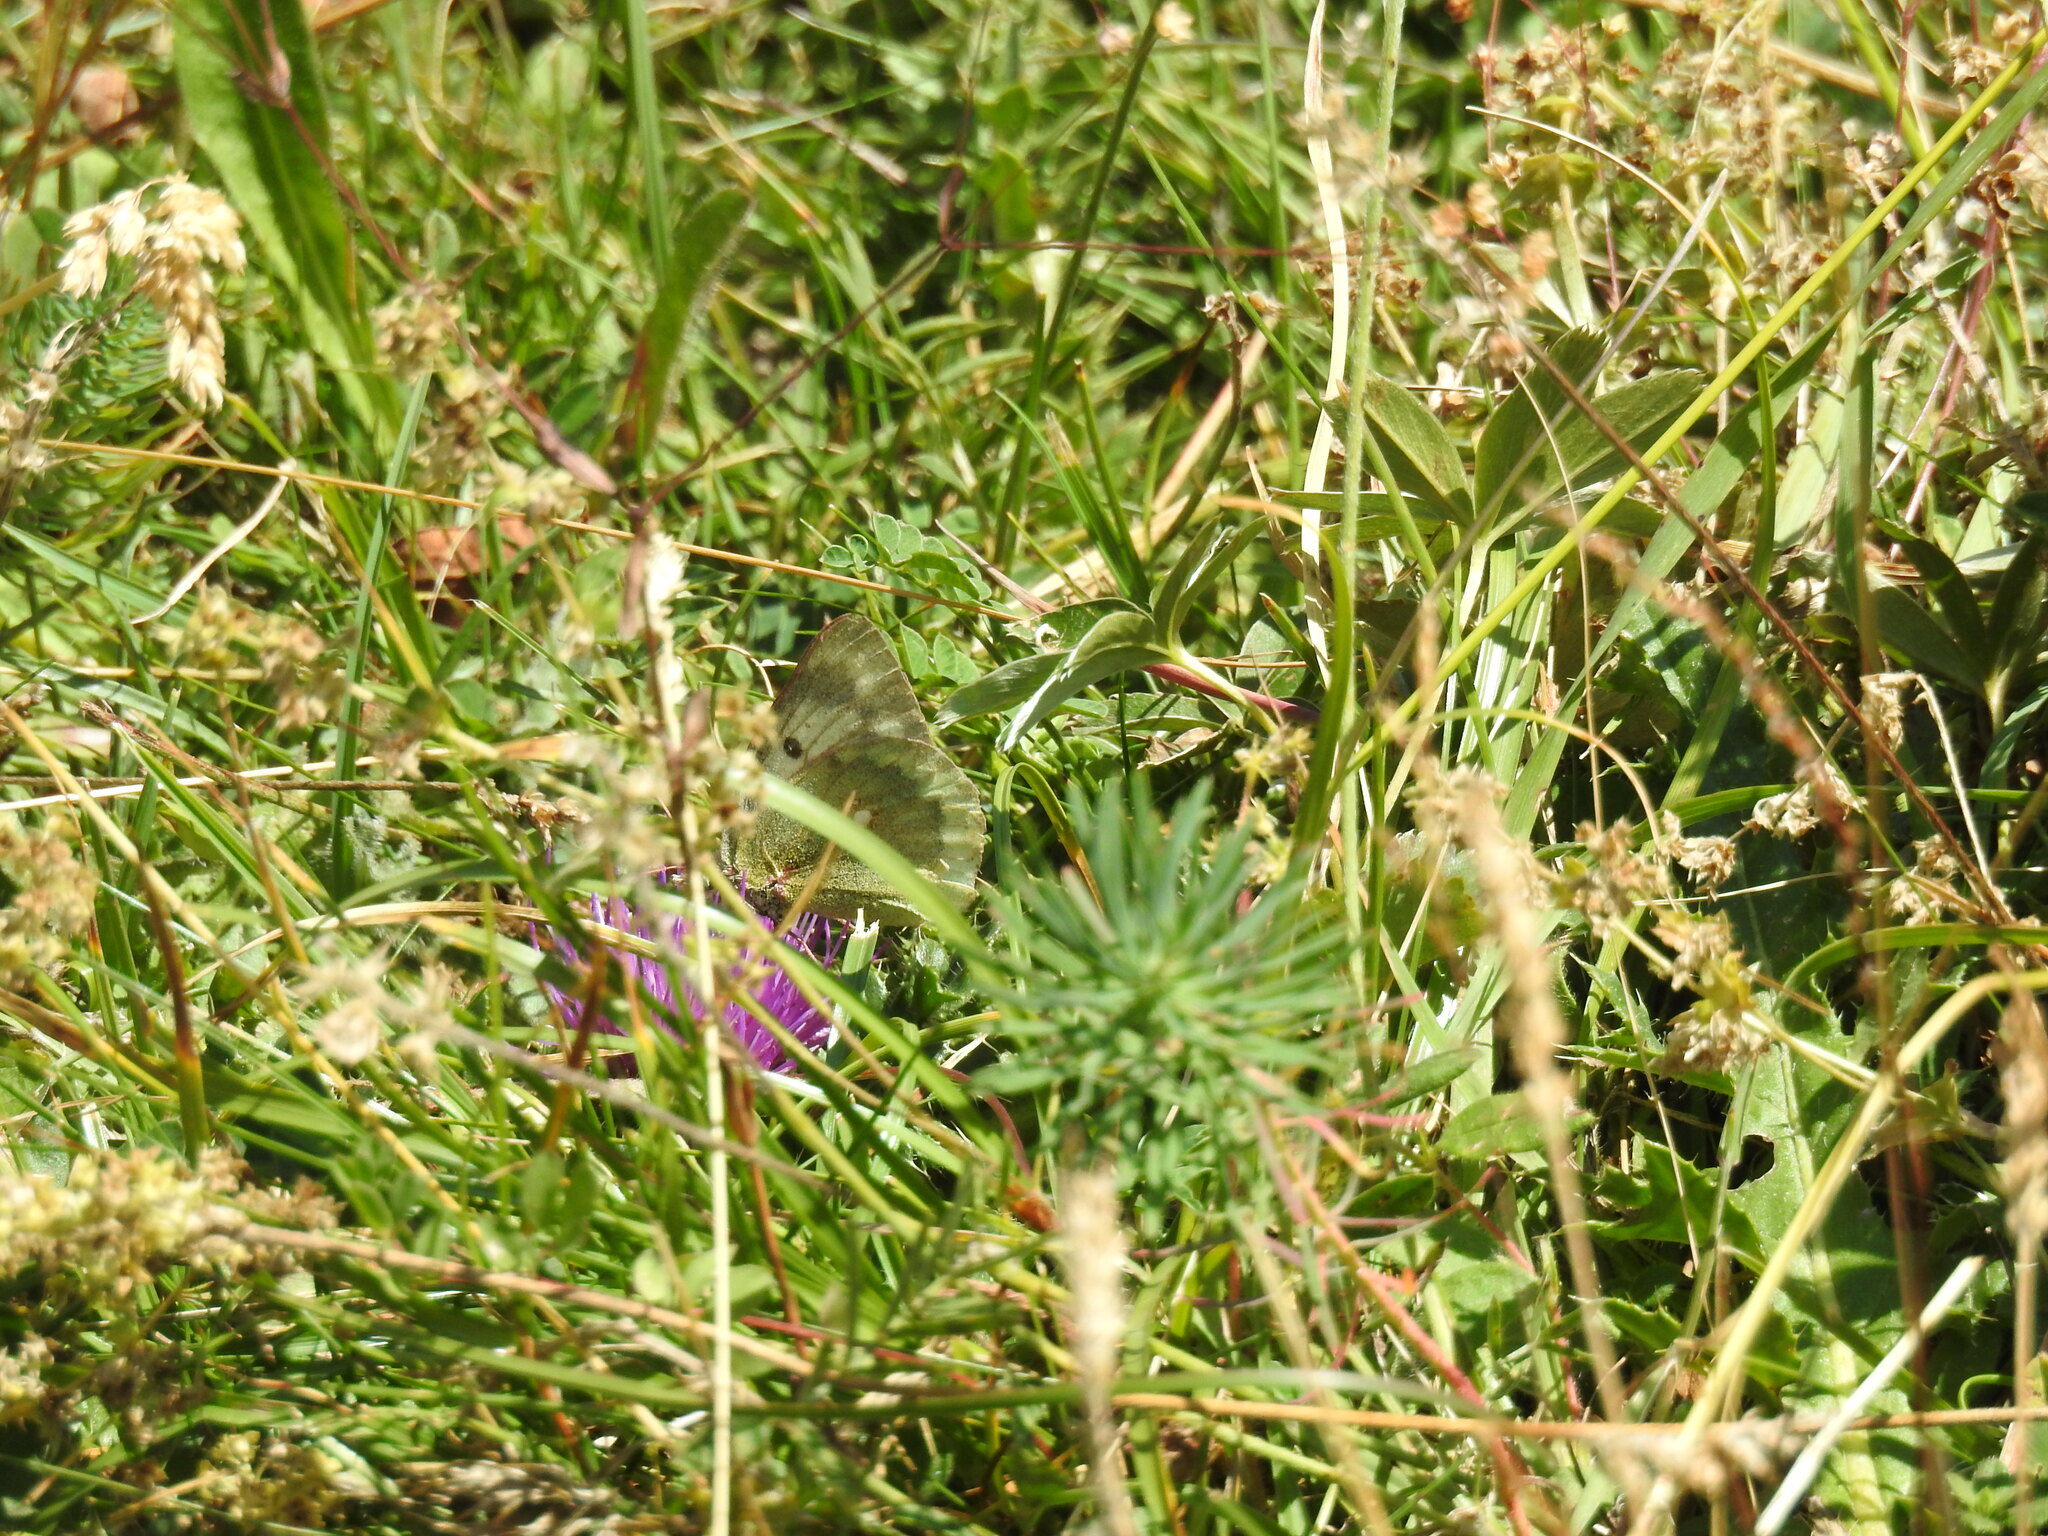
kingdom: Animalia
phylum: Arthropoda
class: Insecta
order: Lepidoptera
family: Pieridae
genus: Colias
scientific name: Colias phicomone
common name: Mountain clouded yellow
